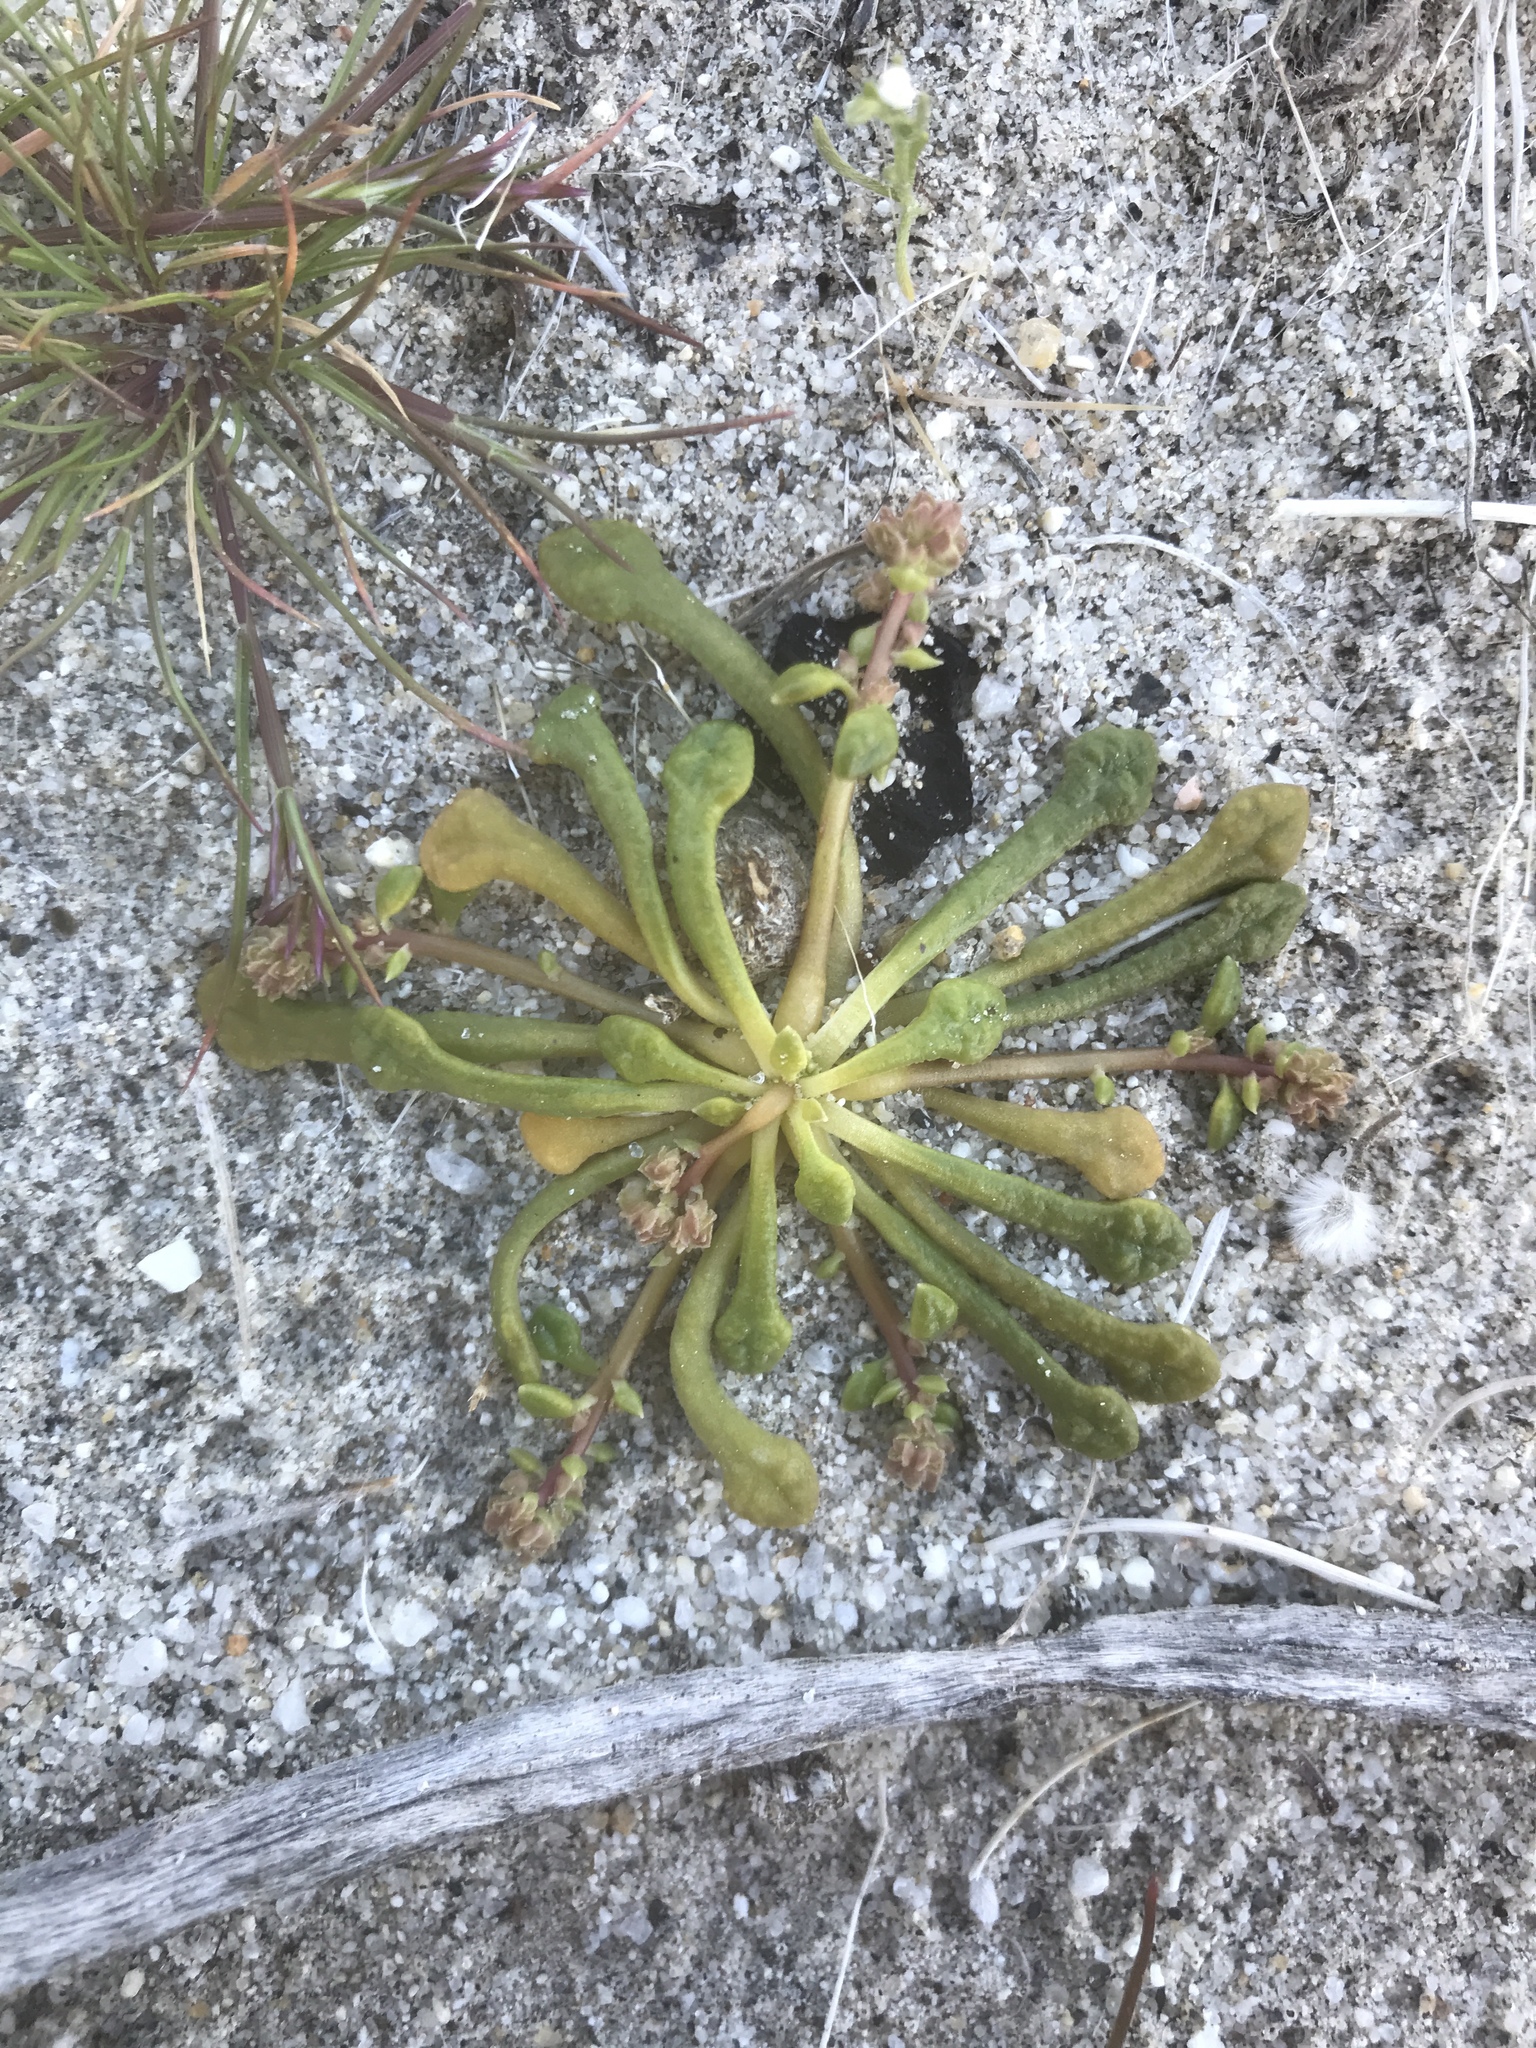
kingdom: Plantae
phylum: Tracheophyta
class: Magnoliopsida
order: Caryophyllales
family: Montiaceae
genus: Calyptridium
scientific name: Calyptridium monandrum
